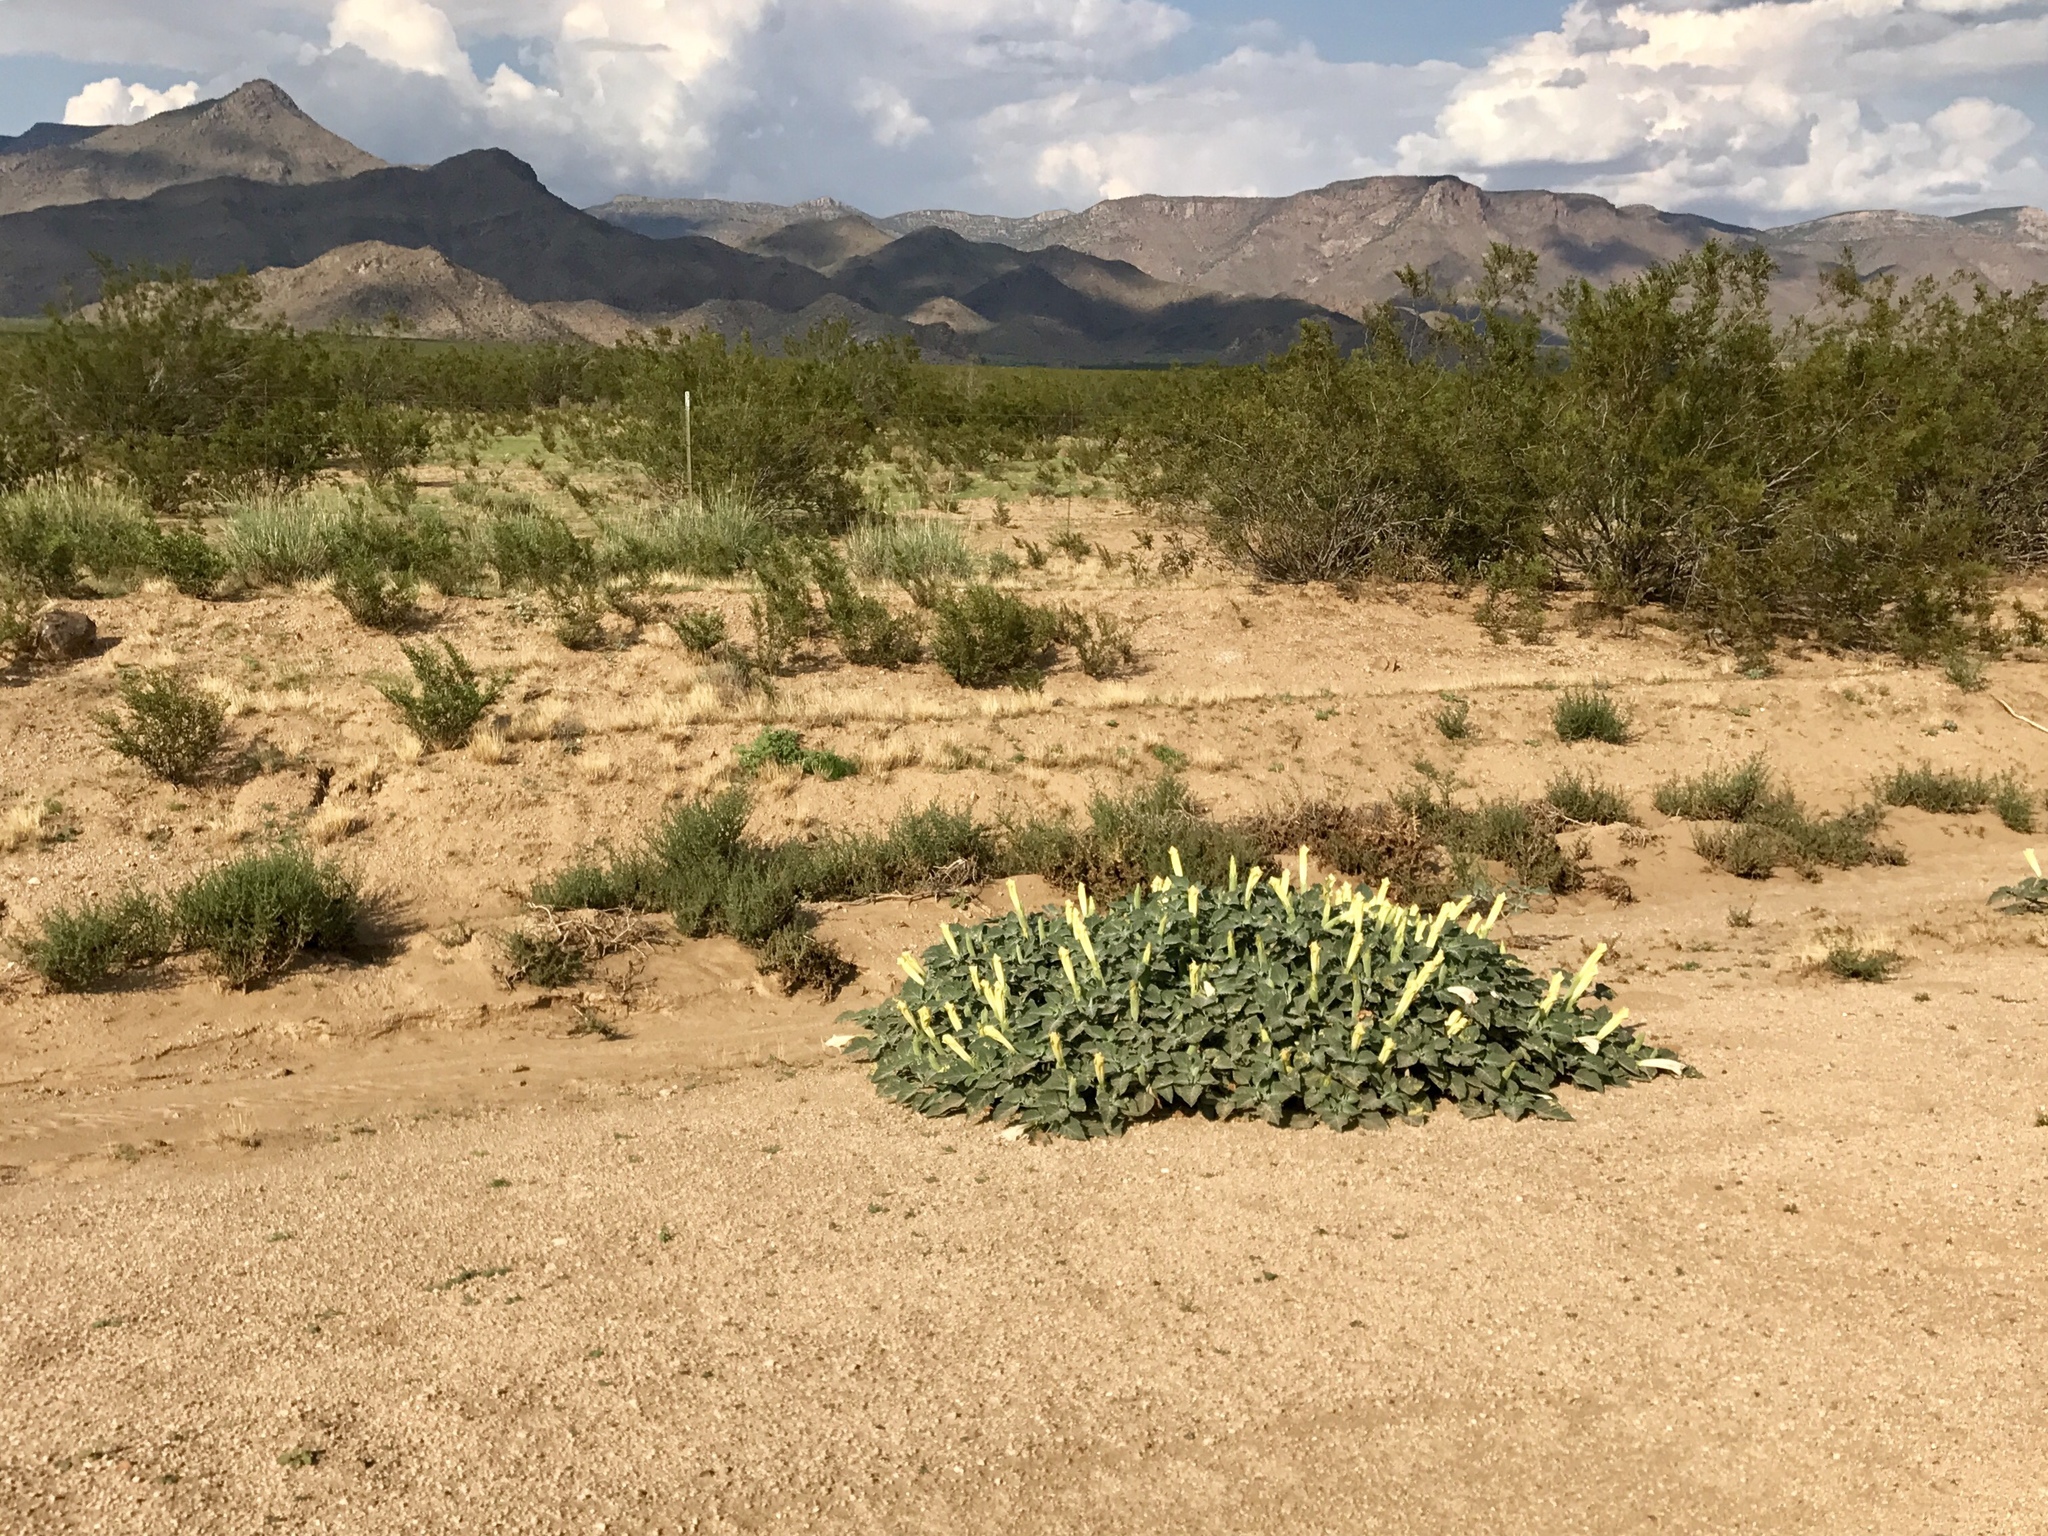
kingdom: Plantae
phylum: Tracheophyta
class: Magnoliopsida
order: Solanales
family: Solanaceae
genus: Datura
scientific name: Datura wrightii
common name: Sacred thorn-apple
